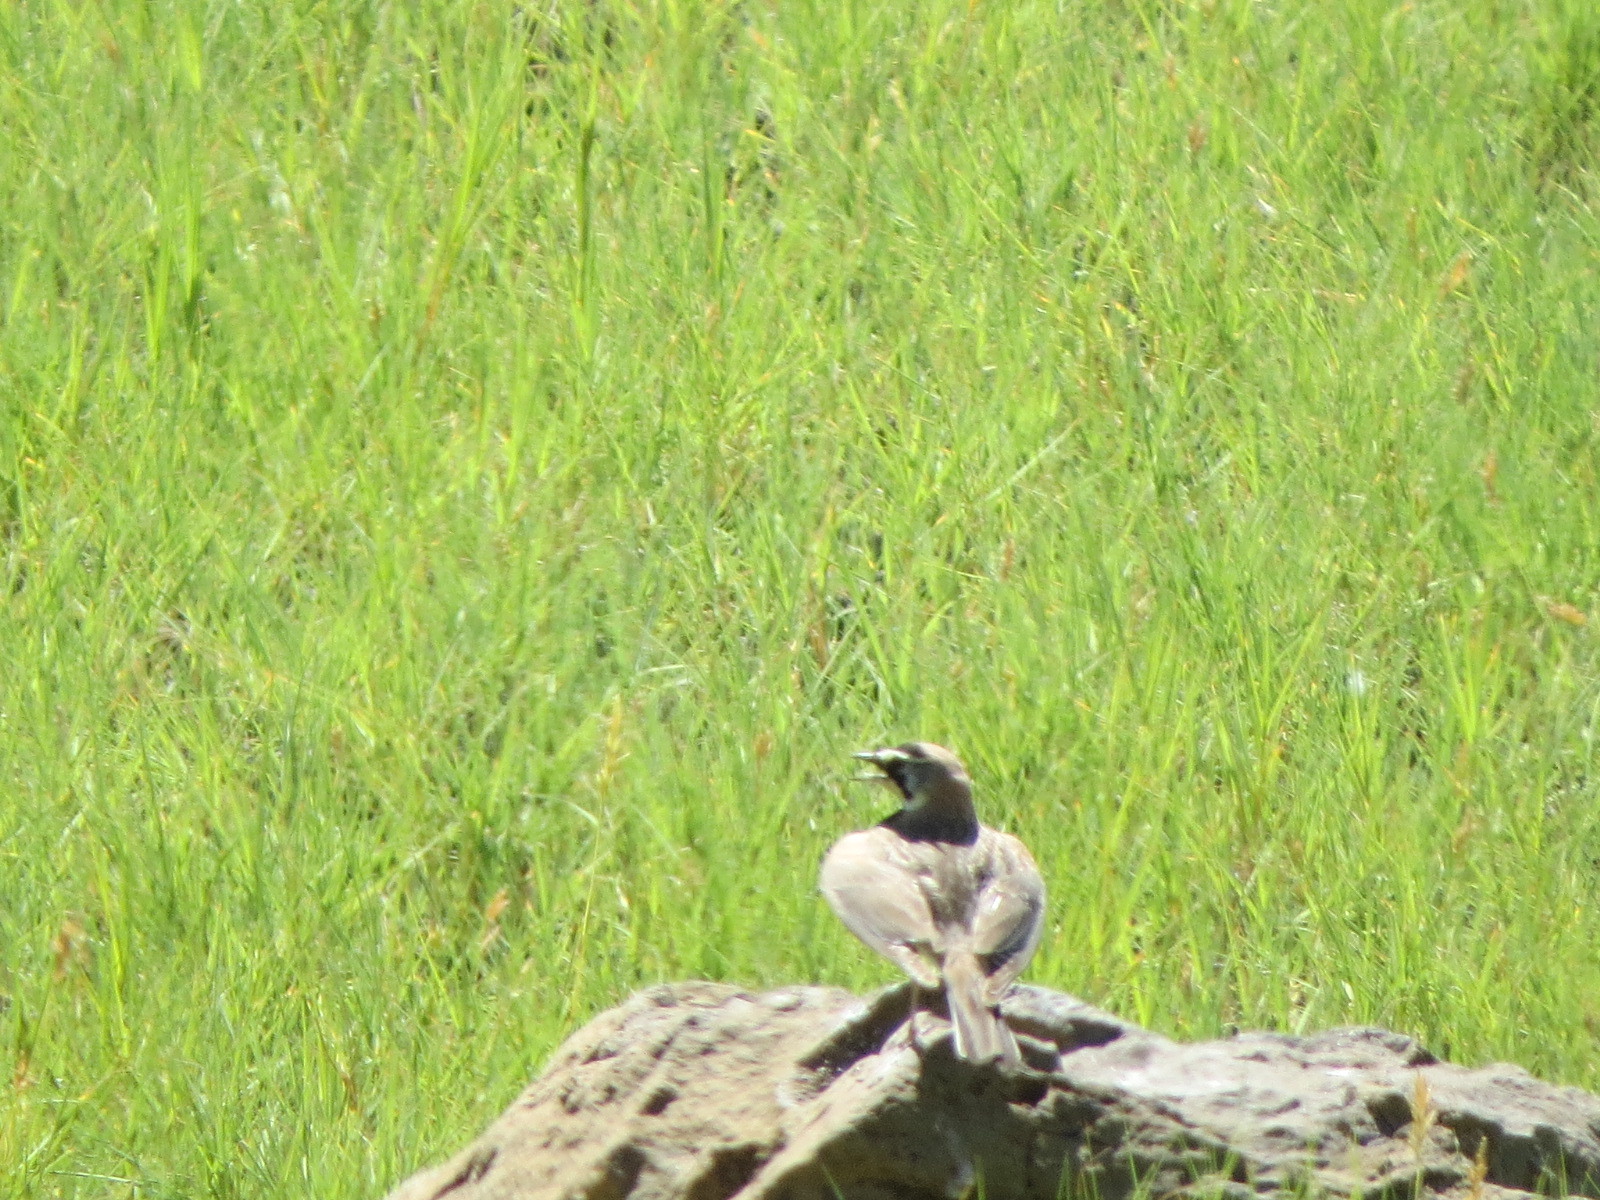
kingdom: Animalia
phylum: Chordata
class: Aves
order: Passeriformes
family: Alaudidae
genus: Eremophila
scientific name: Eremophila alpestris
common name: Horned lark
